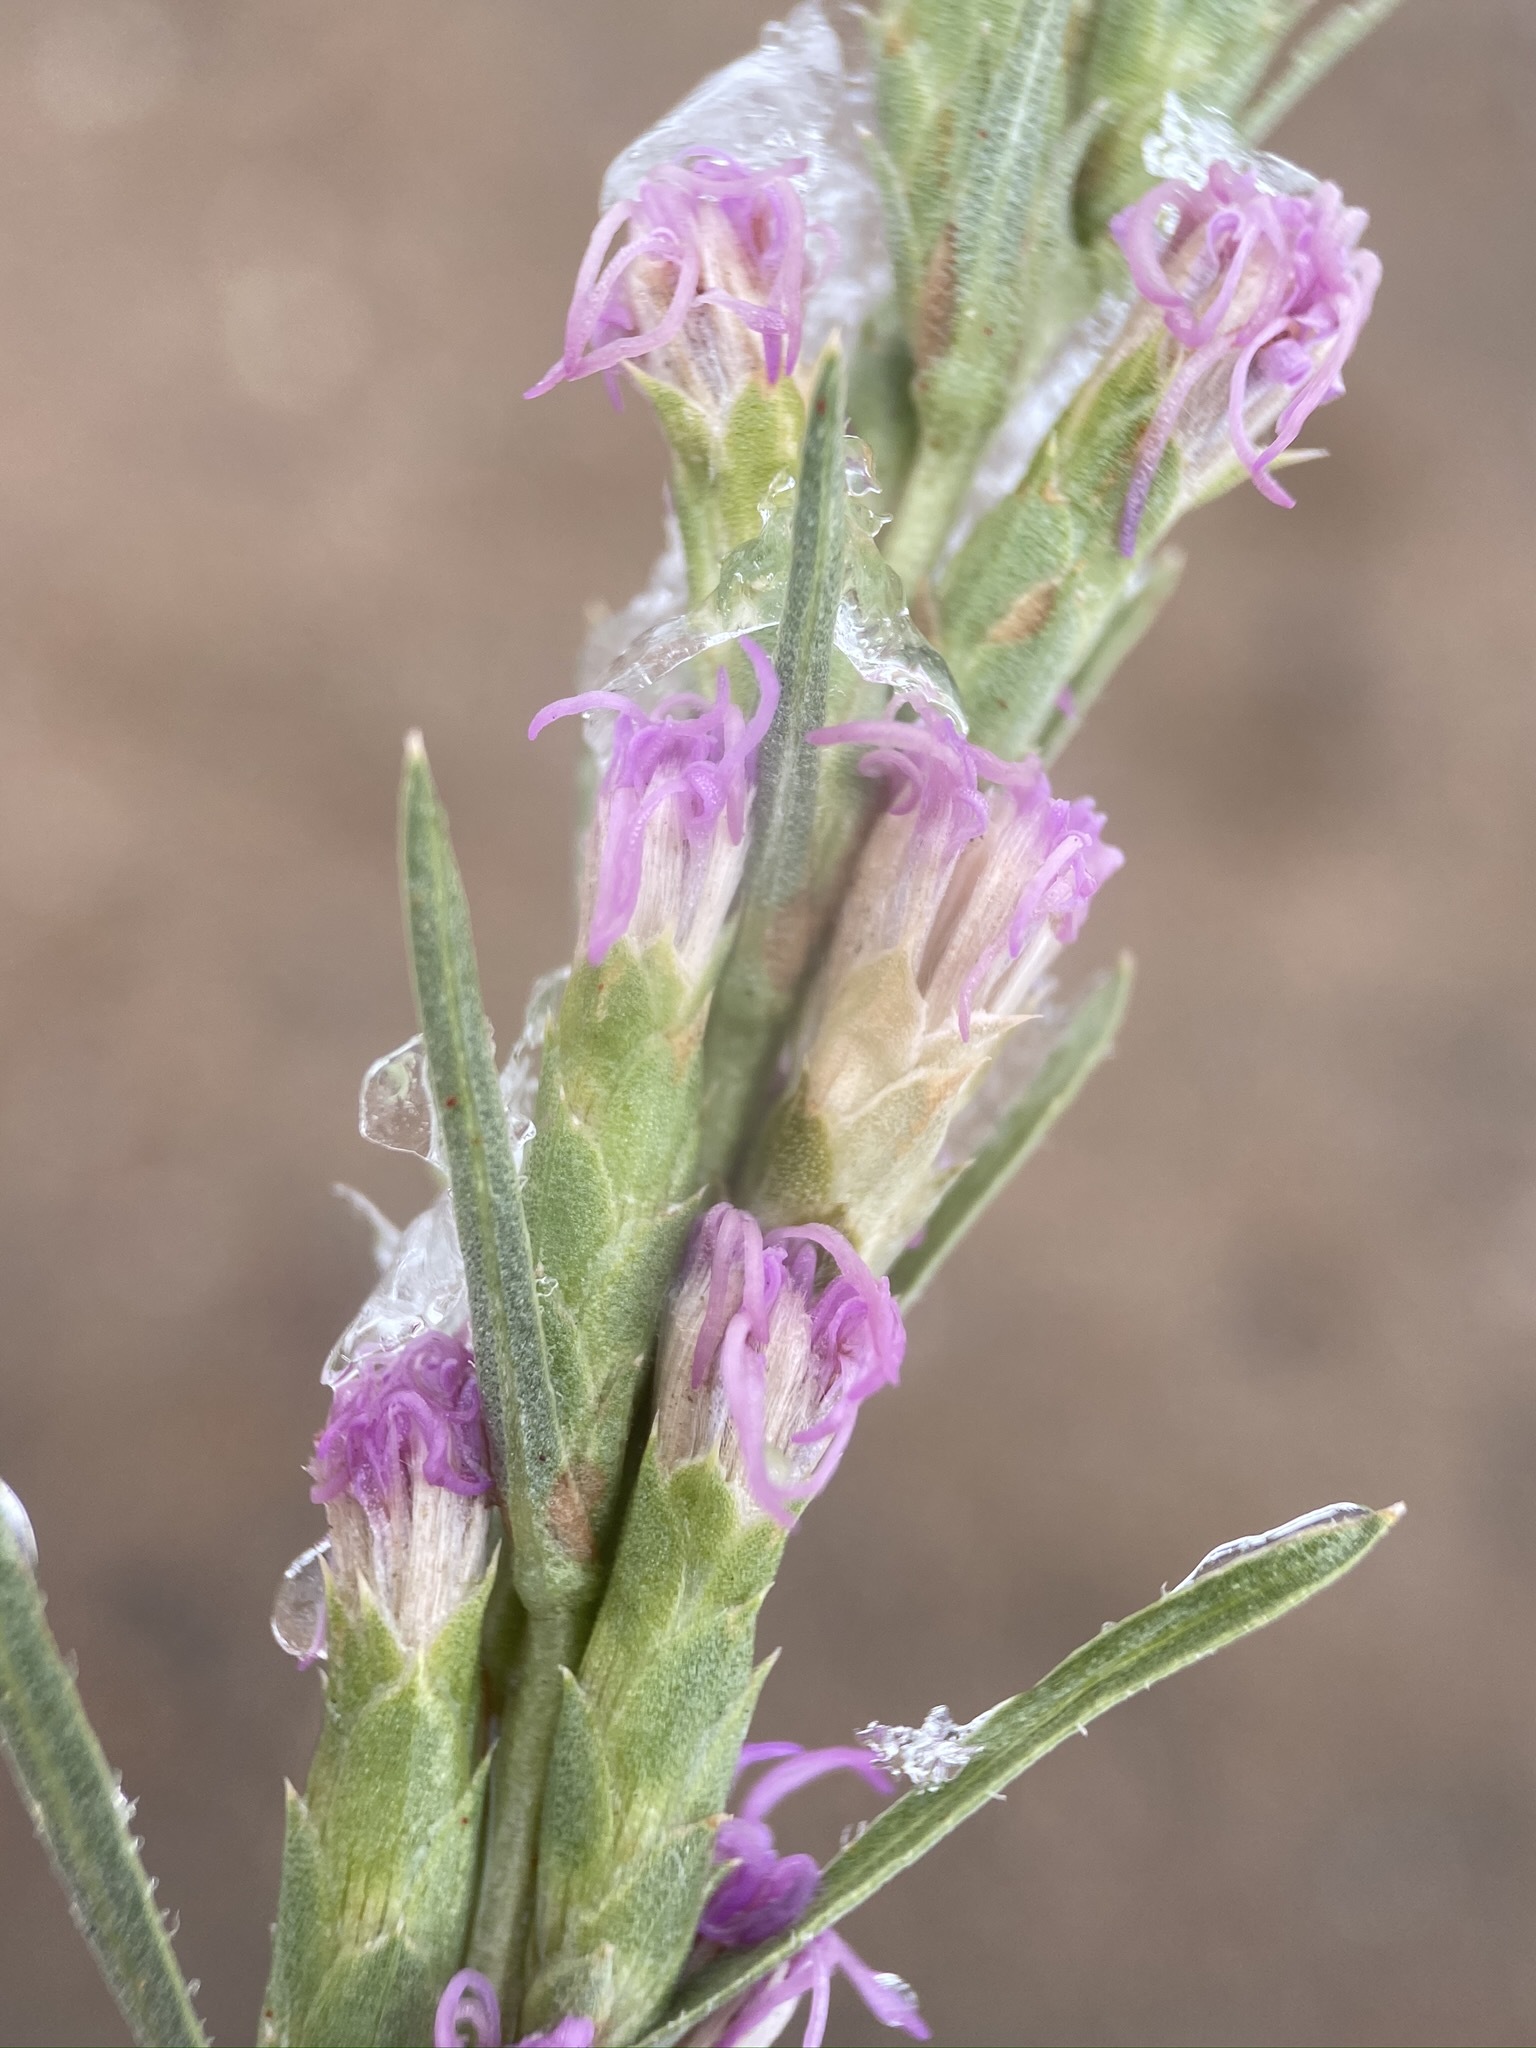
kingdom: Plantae
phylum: Tracheophyta
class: Magnoliopsida
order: Asterales
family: Asteraceae
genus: Liatris
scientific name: Liatris punctata
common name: Dotted gayfeather
